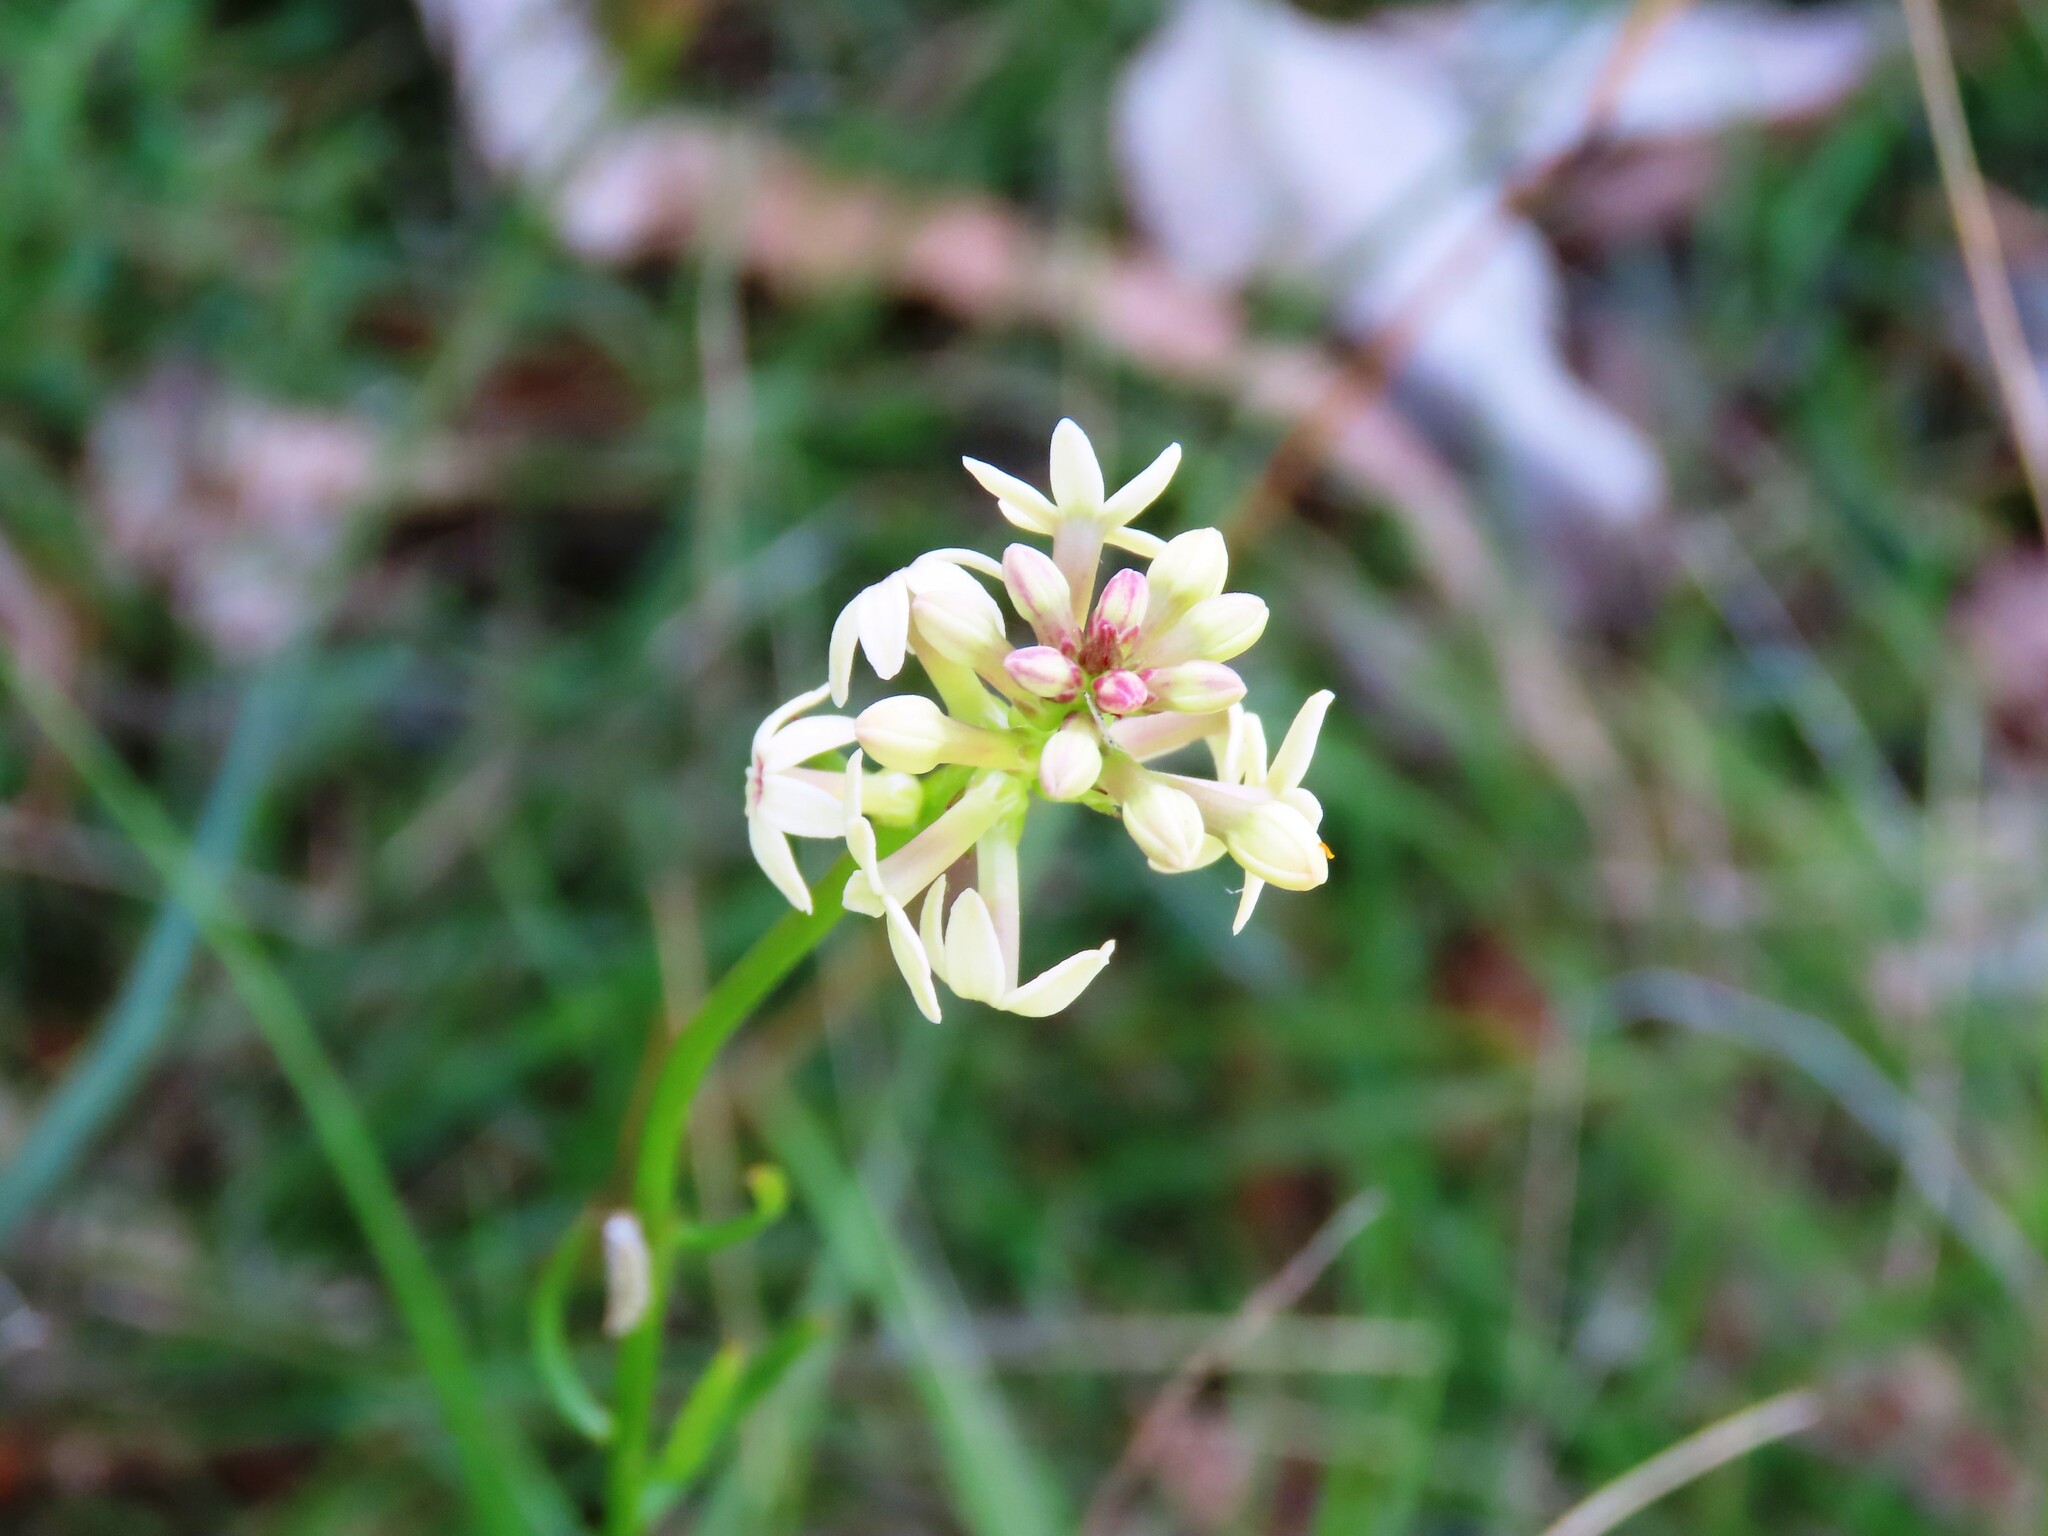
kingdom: Plantae
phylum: Tracheophyta
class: Magnoliopsida
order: Celastrales
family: Celastraceae
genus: Stackhousia
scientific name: Stackhousia monogyna
